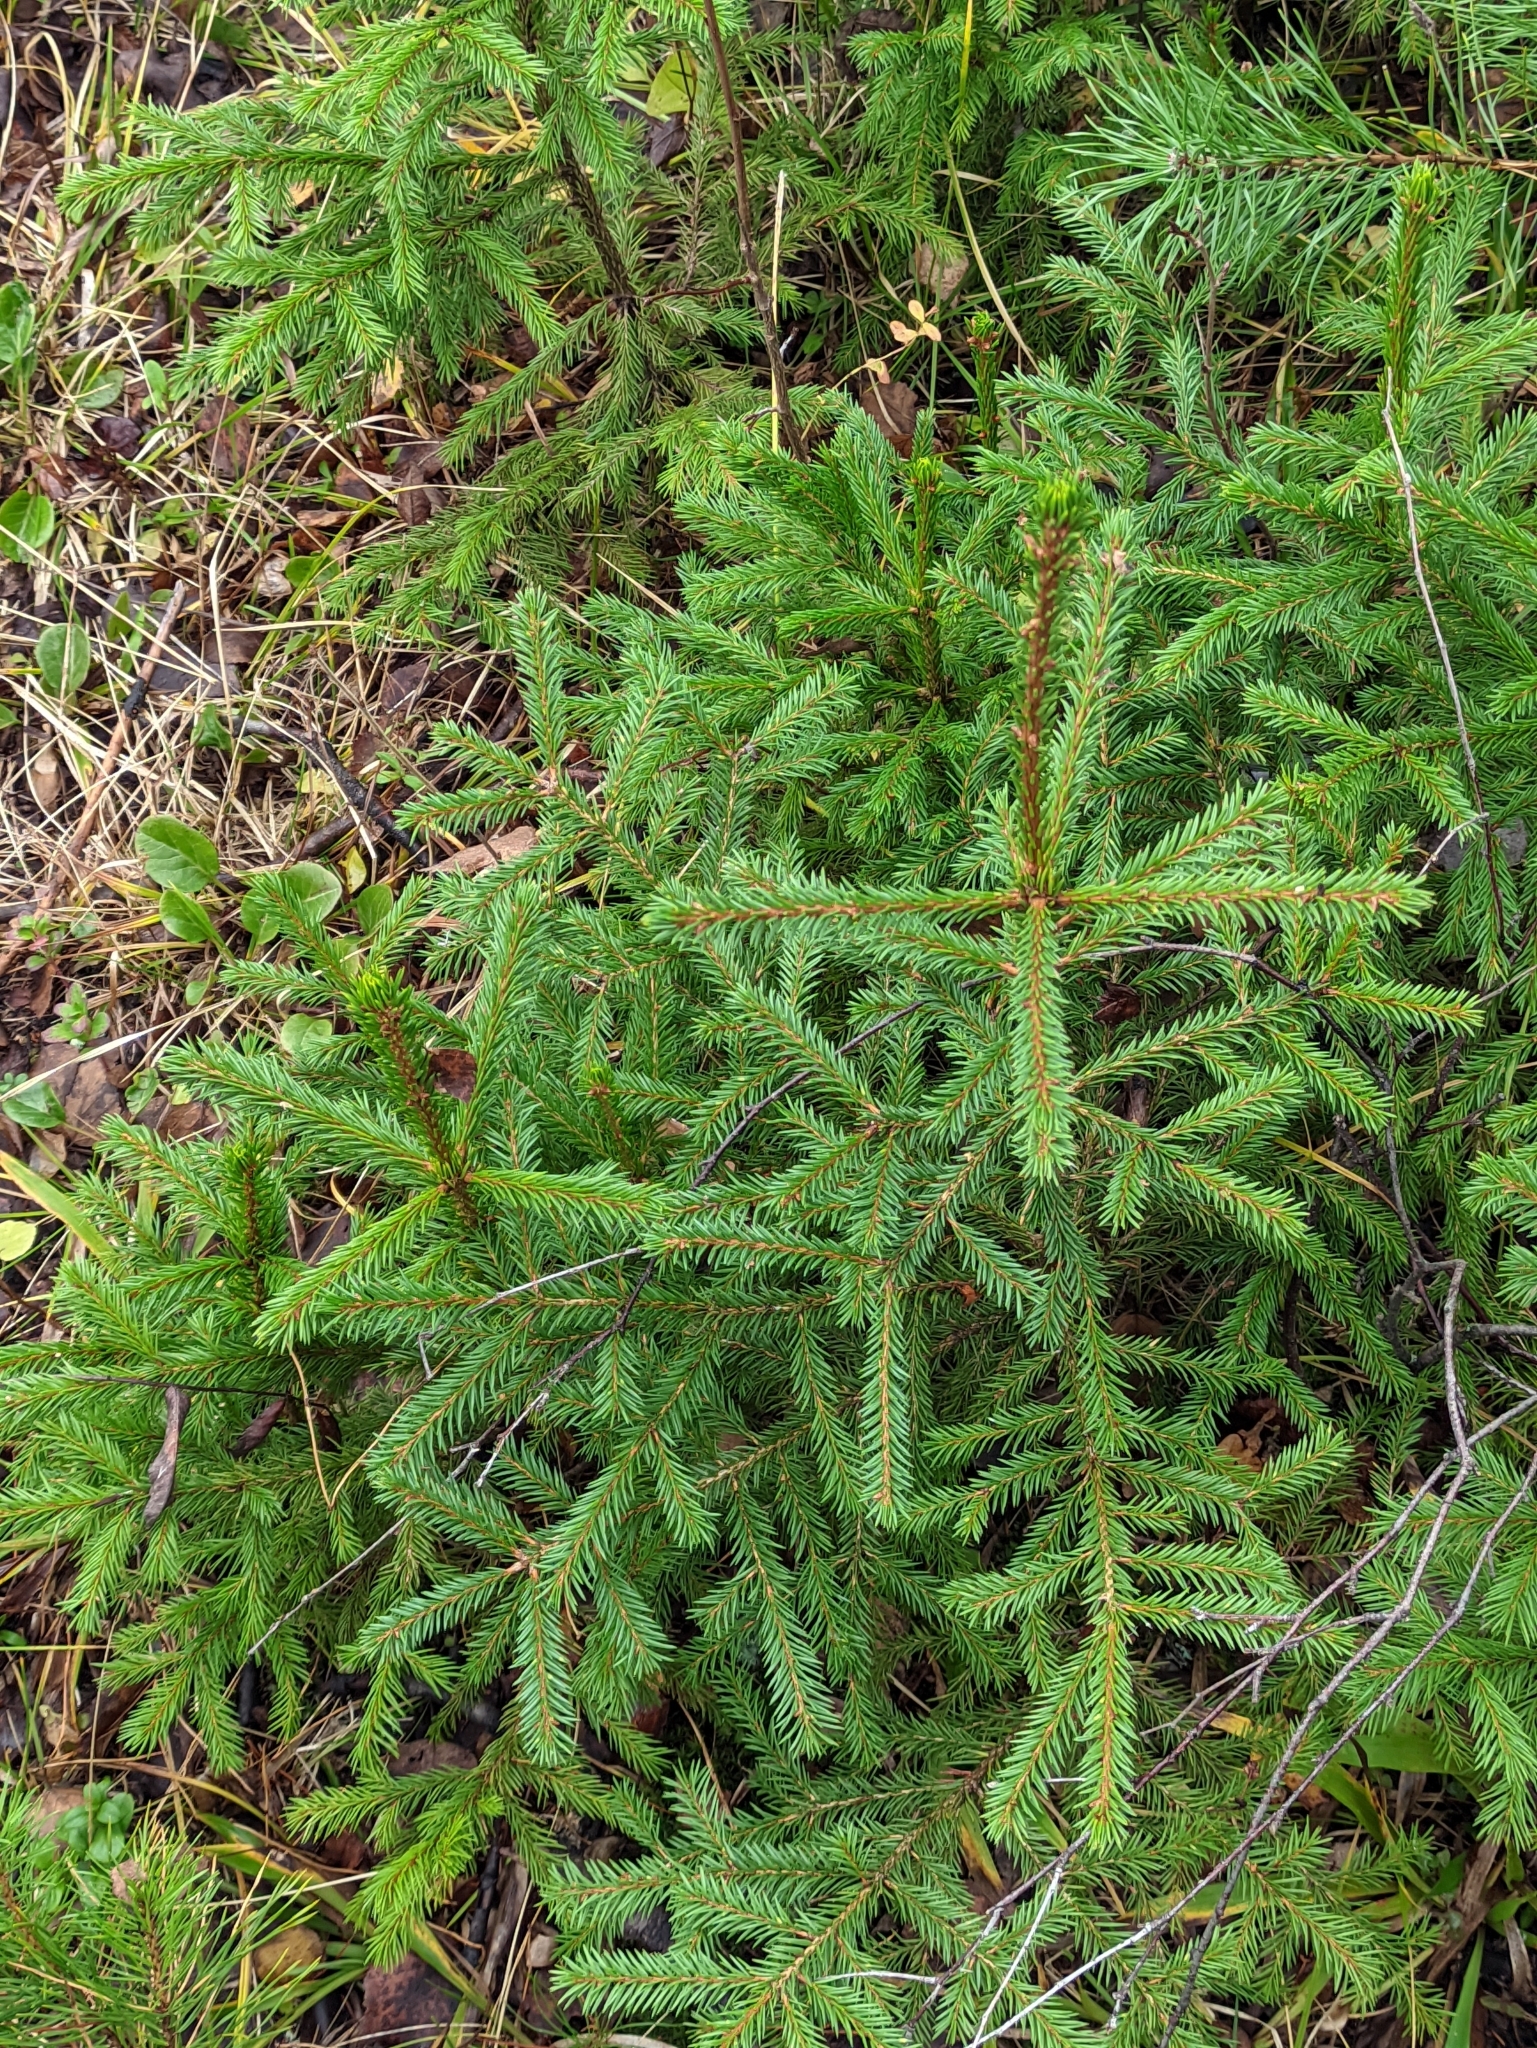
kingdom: Plantae
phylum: Tracheophyta
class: Pinopsida
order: Pinales
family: Pinaceae
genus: Picea
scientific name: Picea abies
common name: Norway spruce
